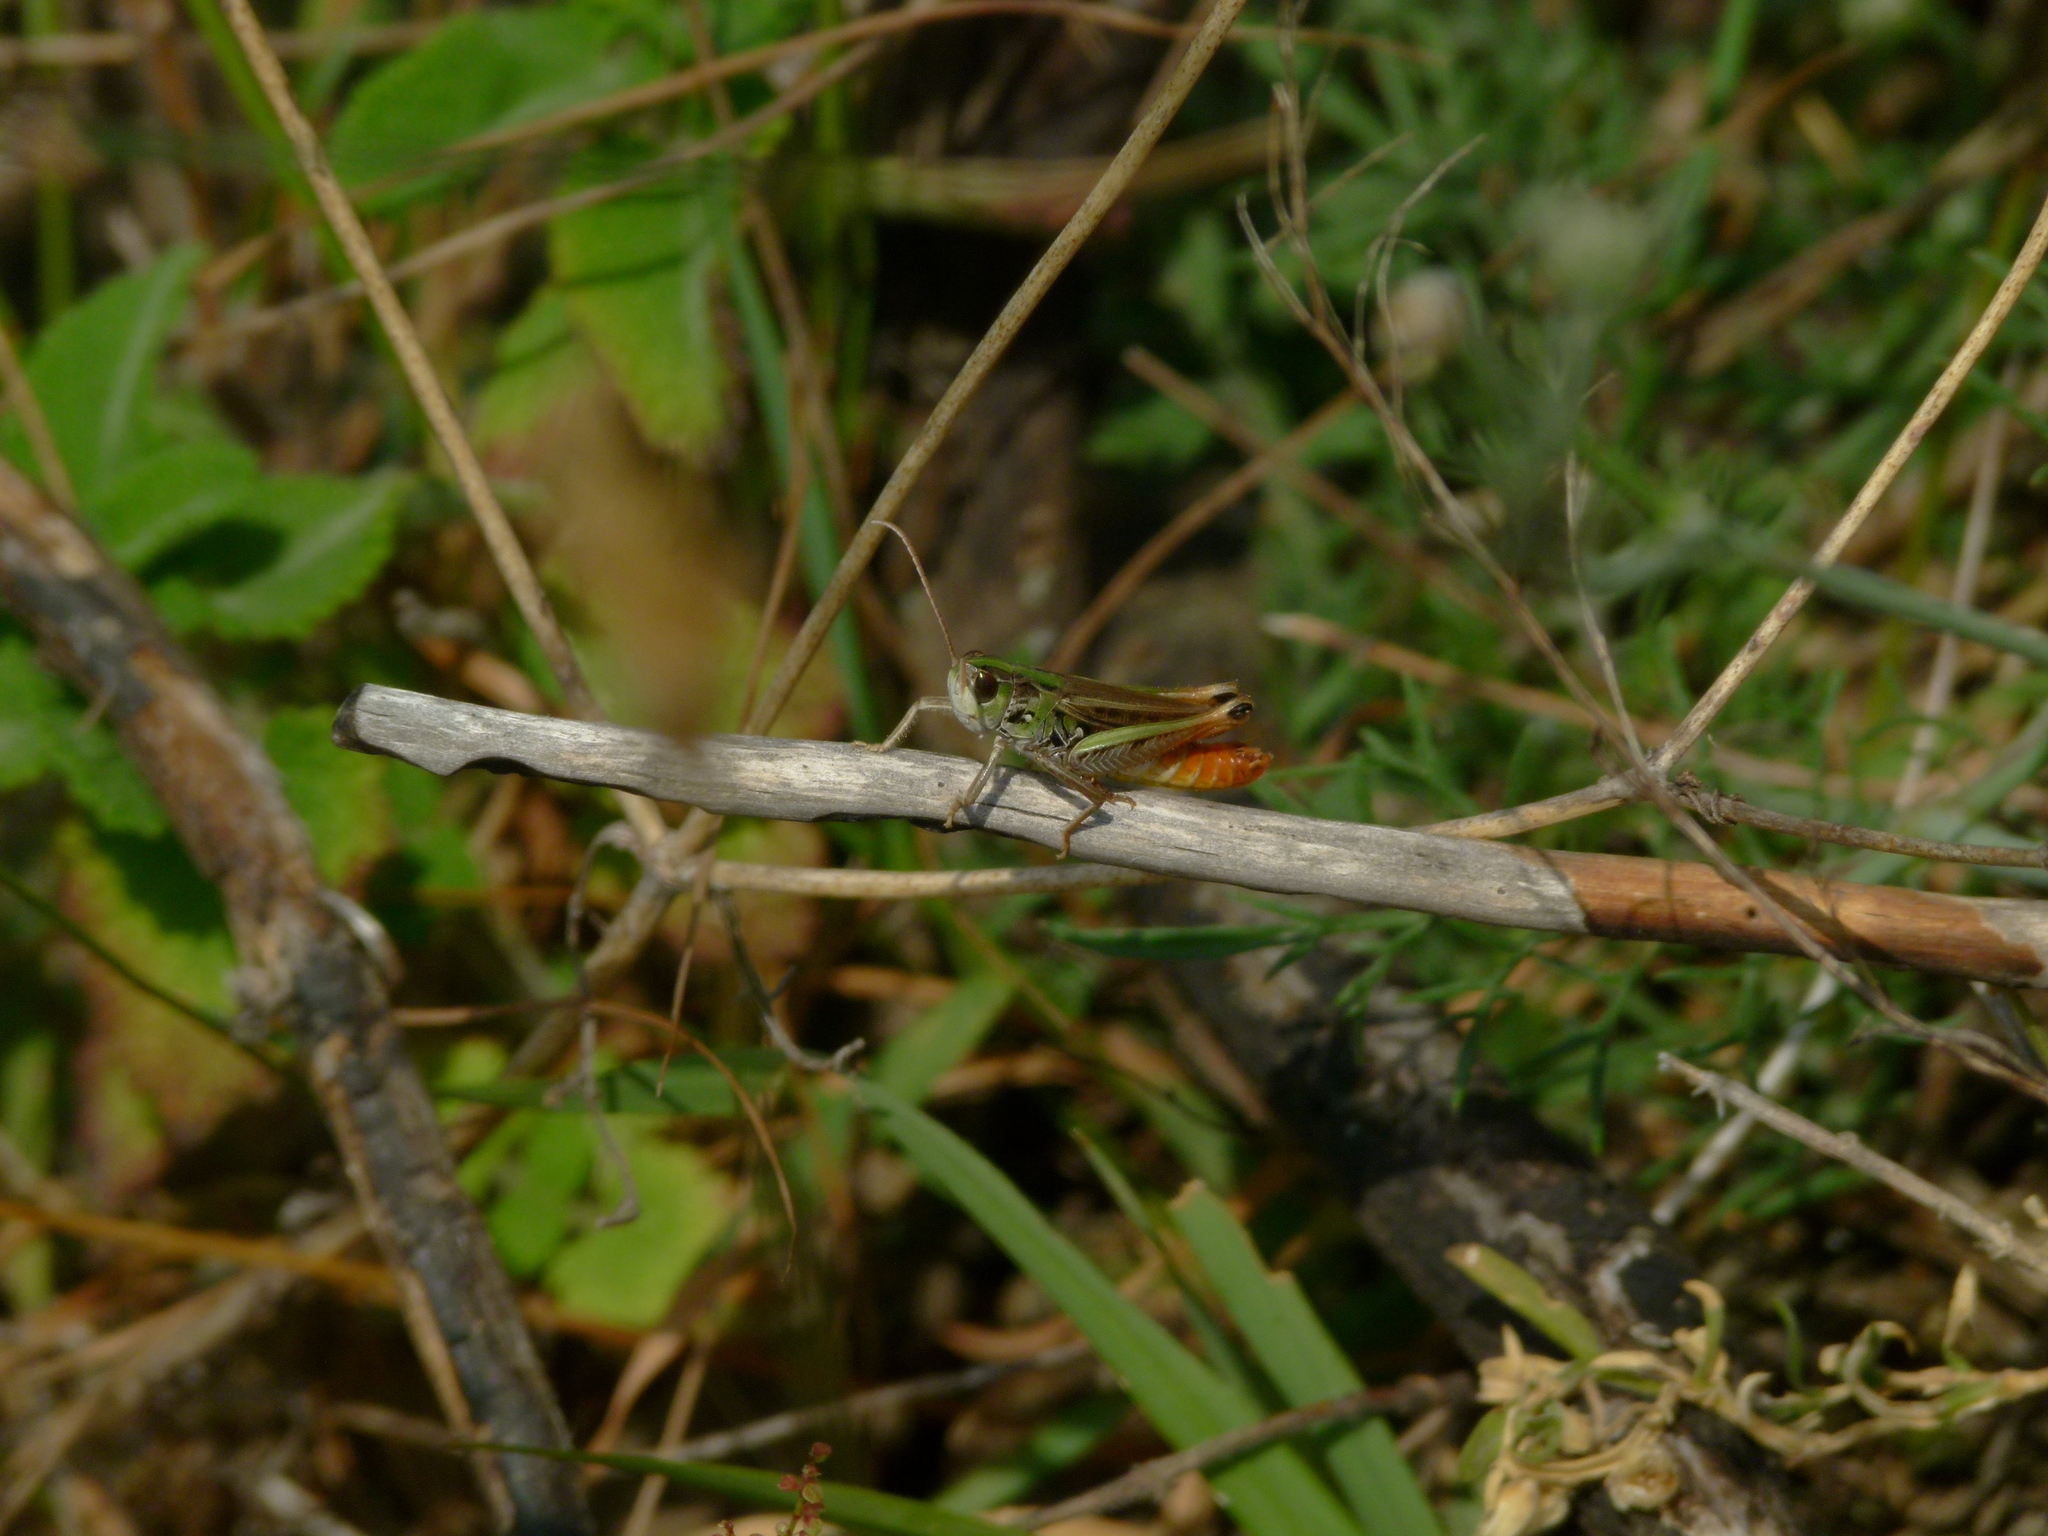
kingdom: Animalia
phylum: Arthropoda
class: Insecta
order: Orthoptera
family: Acrididae
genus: Stenobothrus
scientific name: Stenobothrus nigromaculatus
